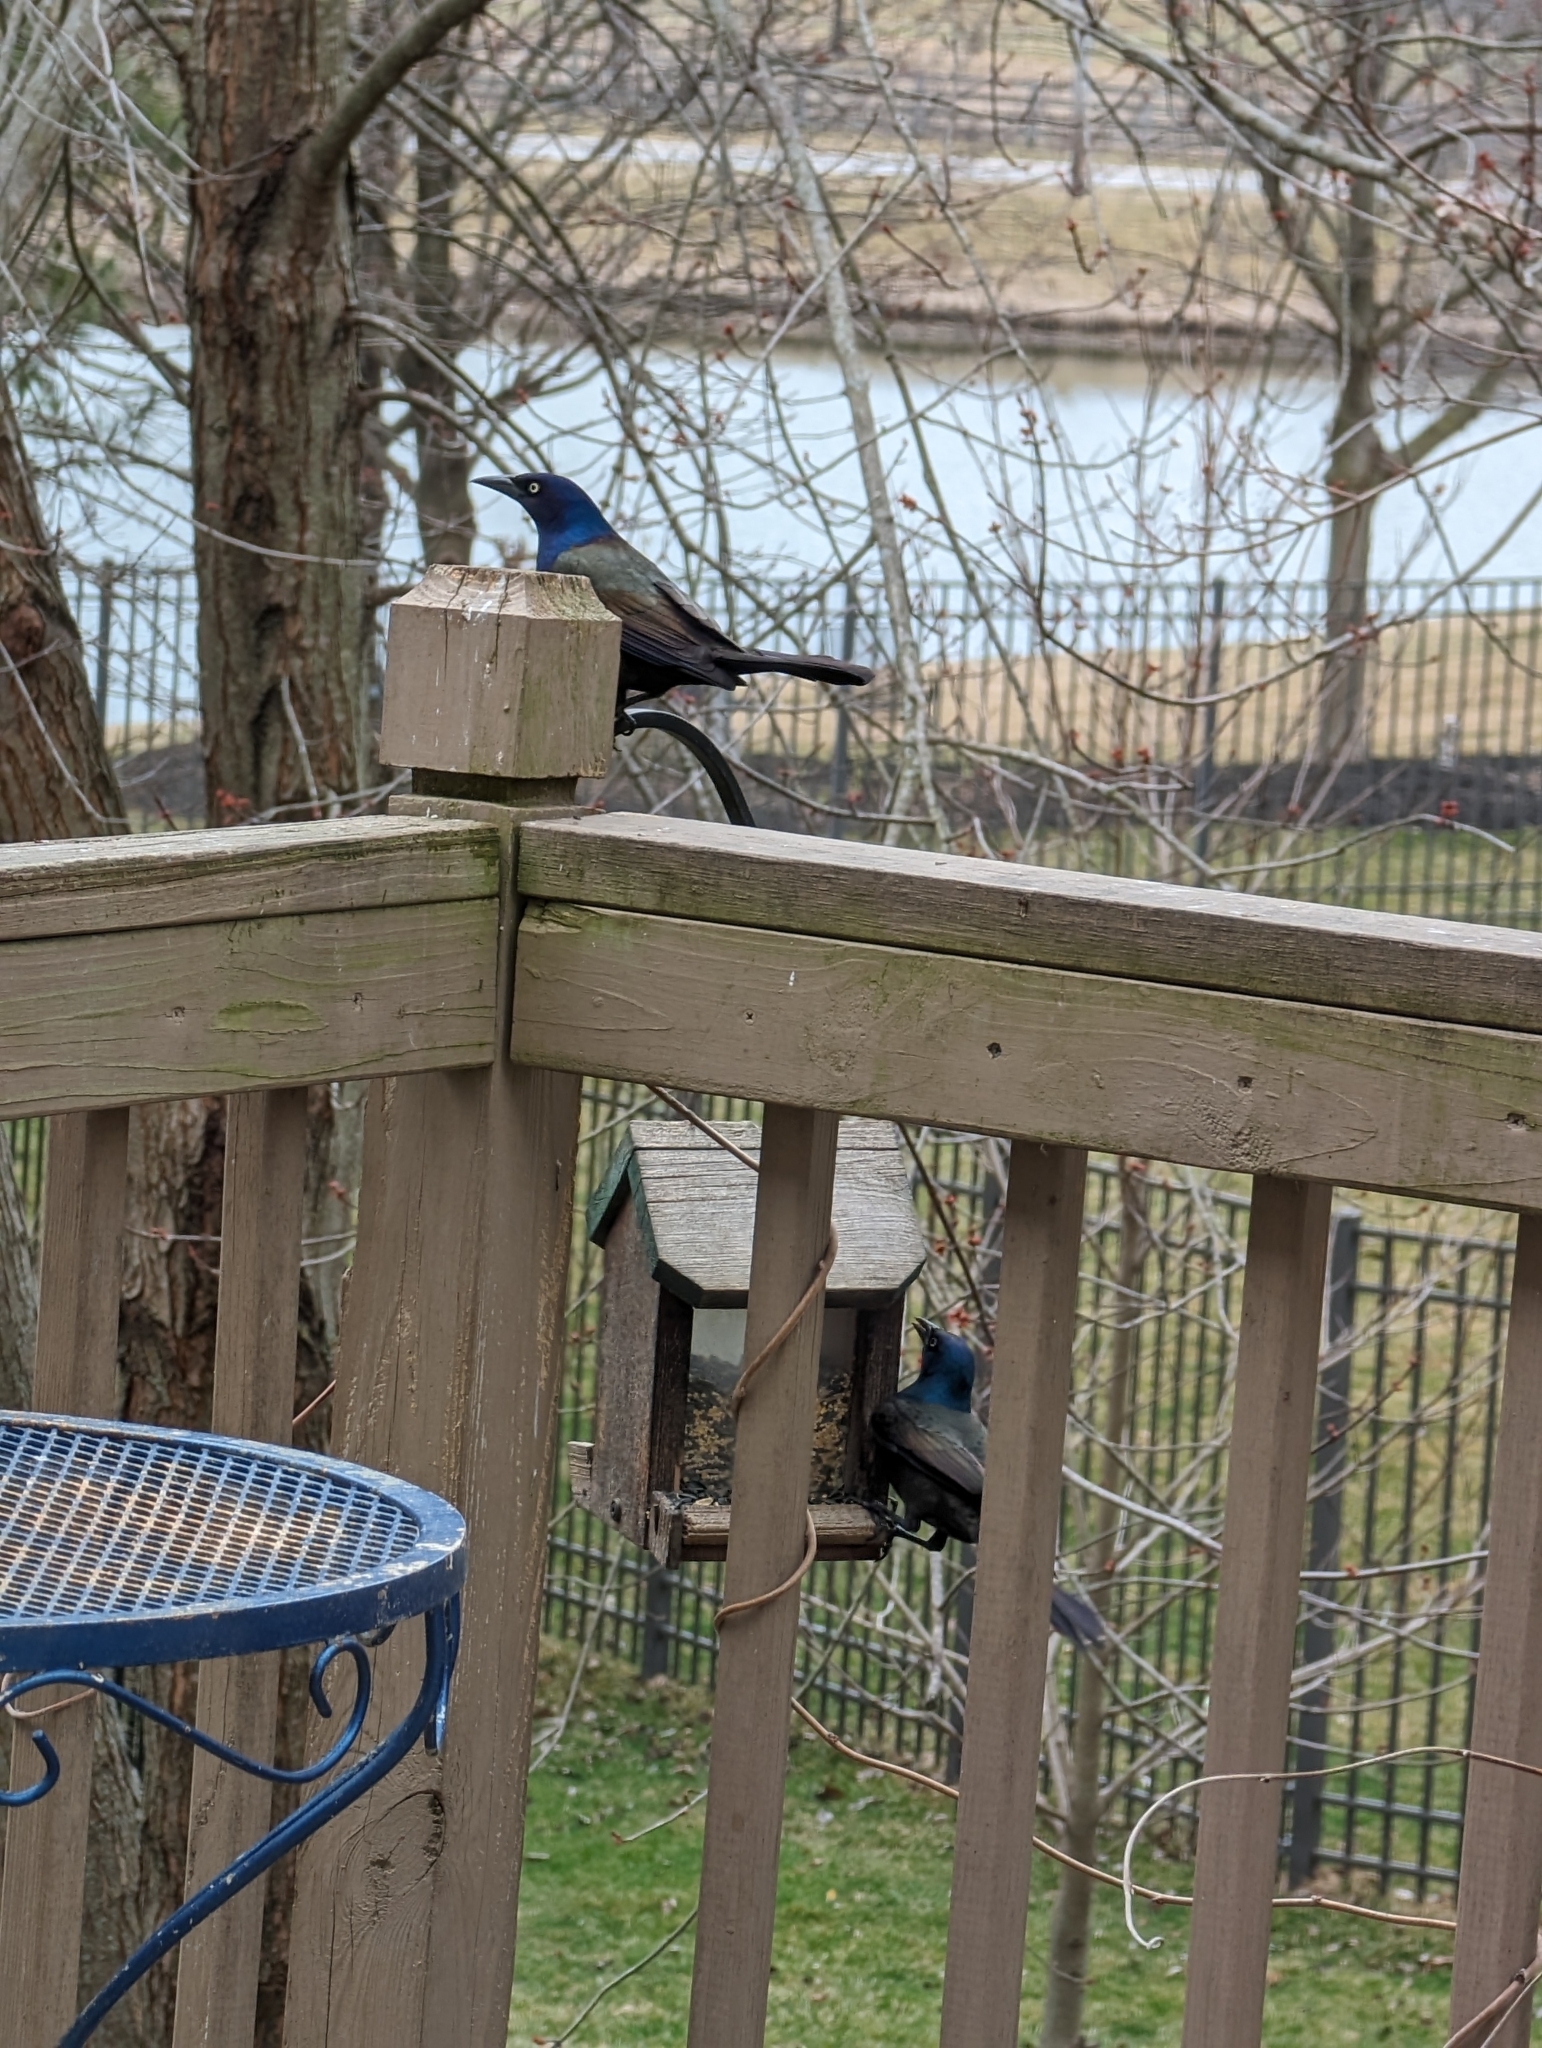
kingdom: Animalia
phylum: Chordata
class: Aves
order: Passeriformes
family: Icteridae
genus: Quiscalus
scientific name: Quiscalus quiscula
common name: Common grackle
